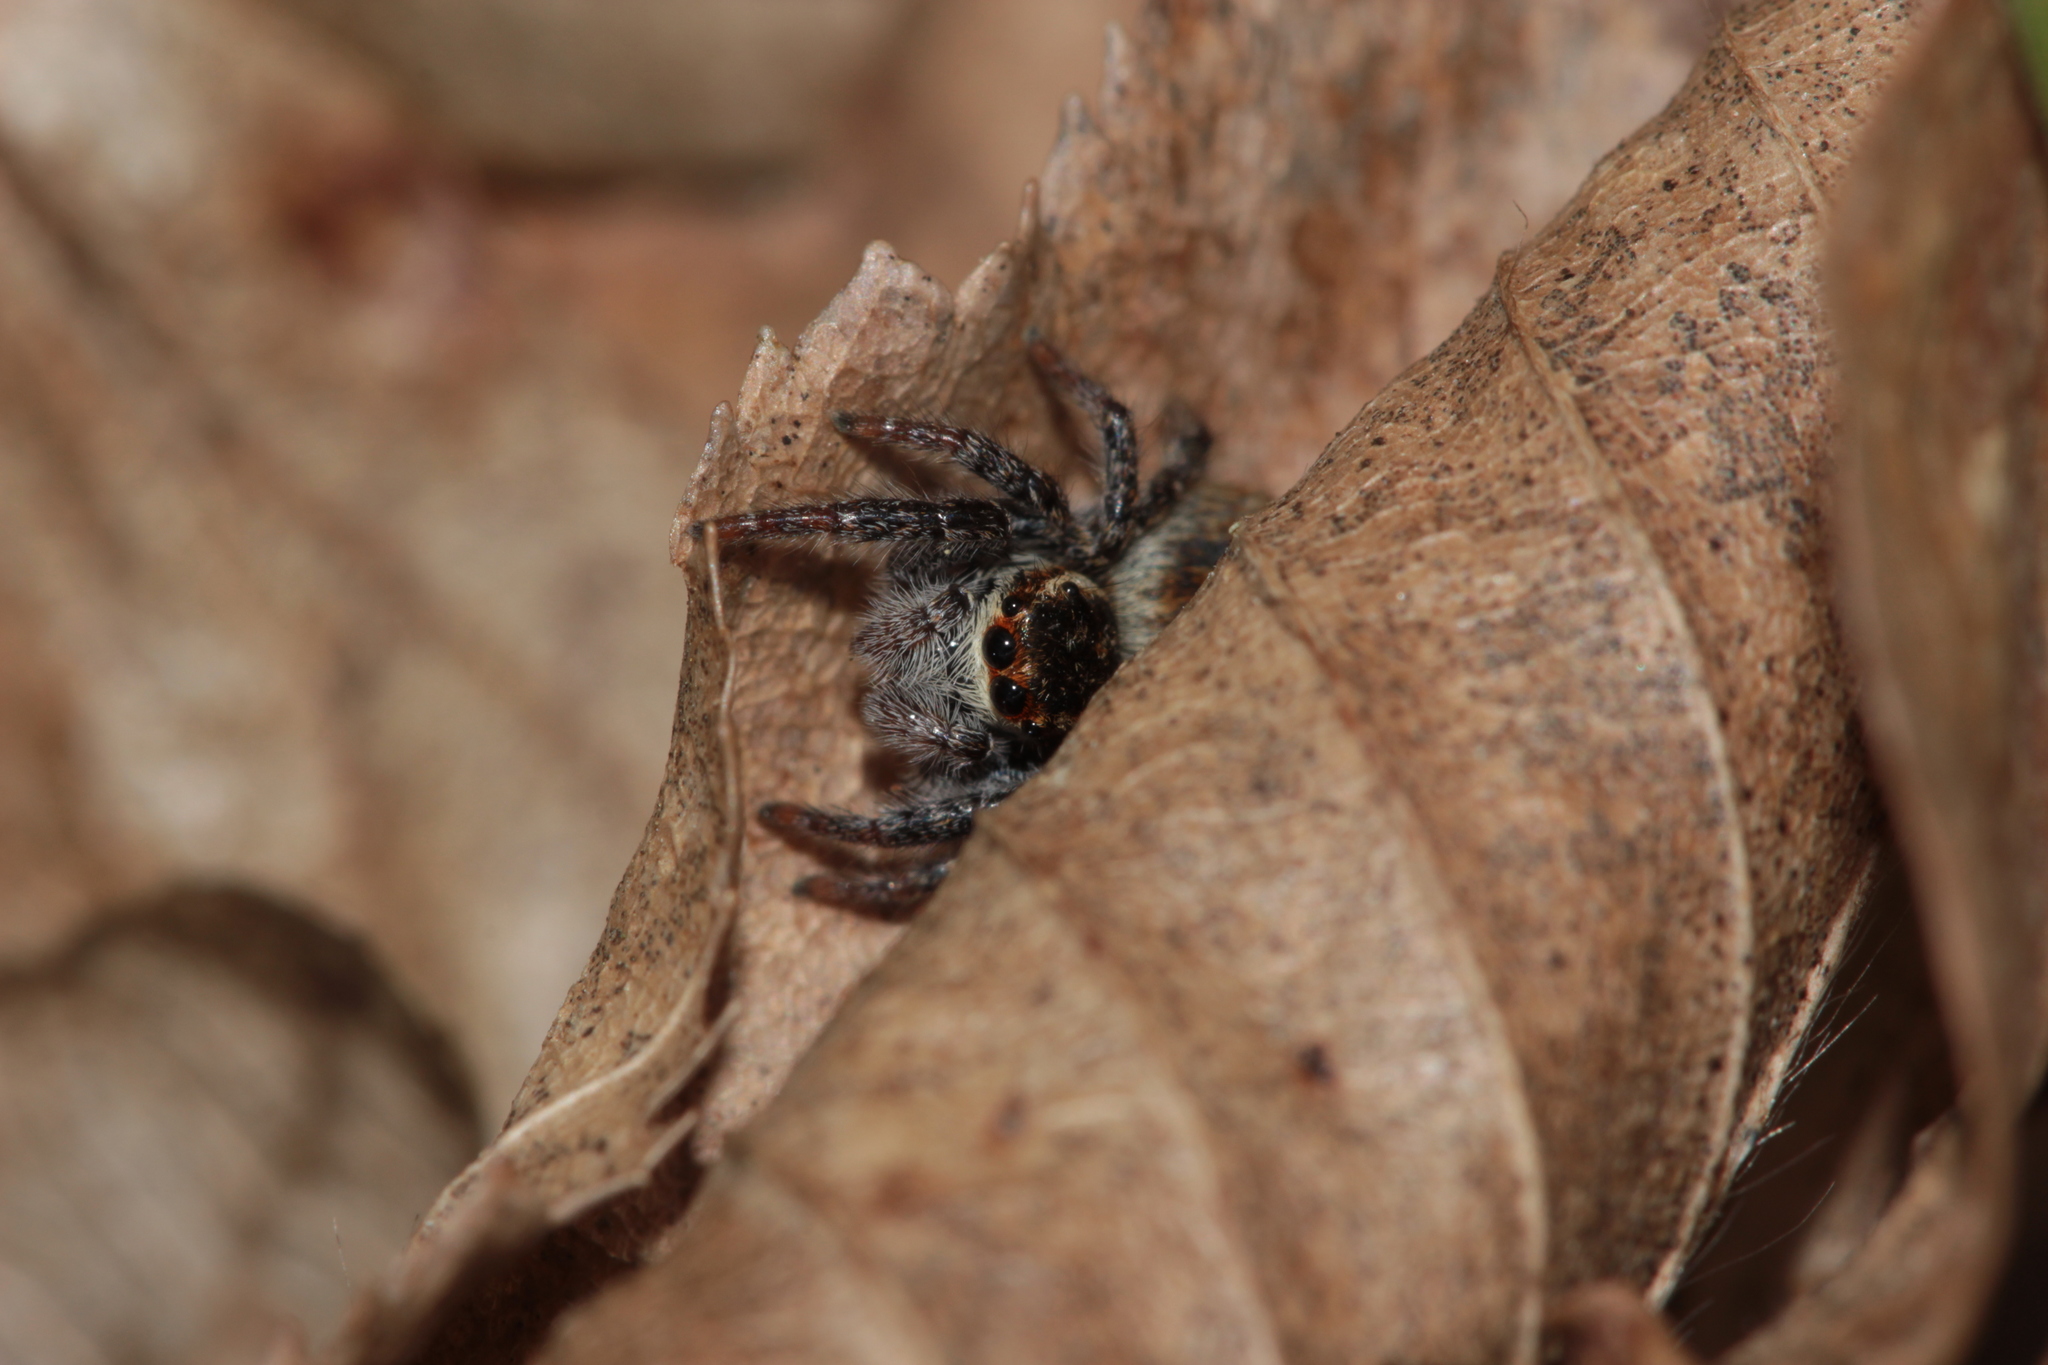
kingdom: Animalia
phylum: Arthropoda
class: Arachnida
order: Araneae
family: Salticidae
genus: Carrhotus
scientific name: Carrhotus xanthogramma
